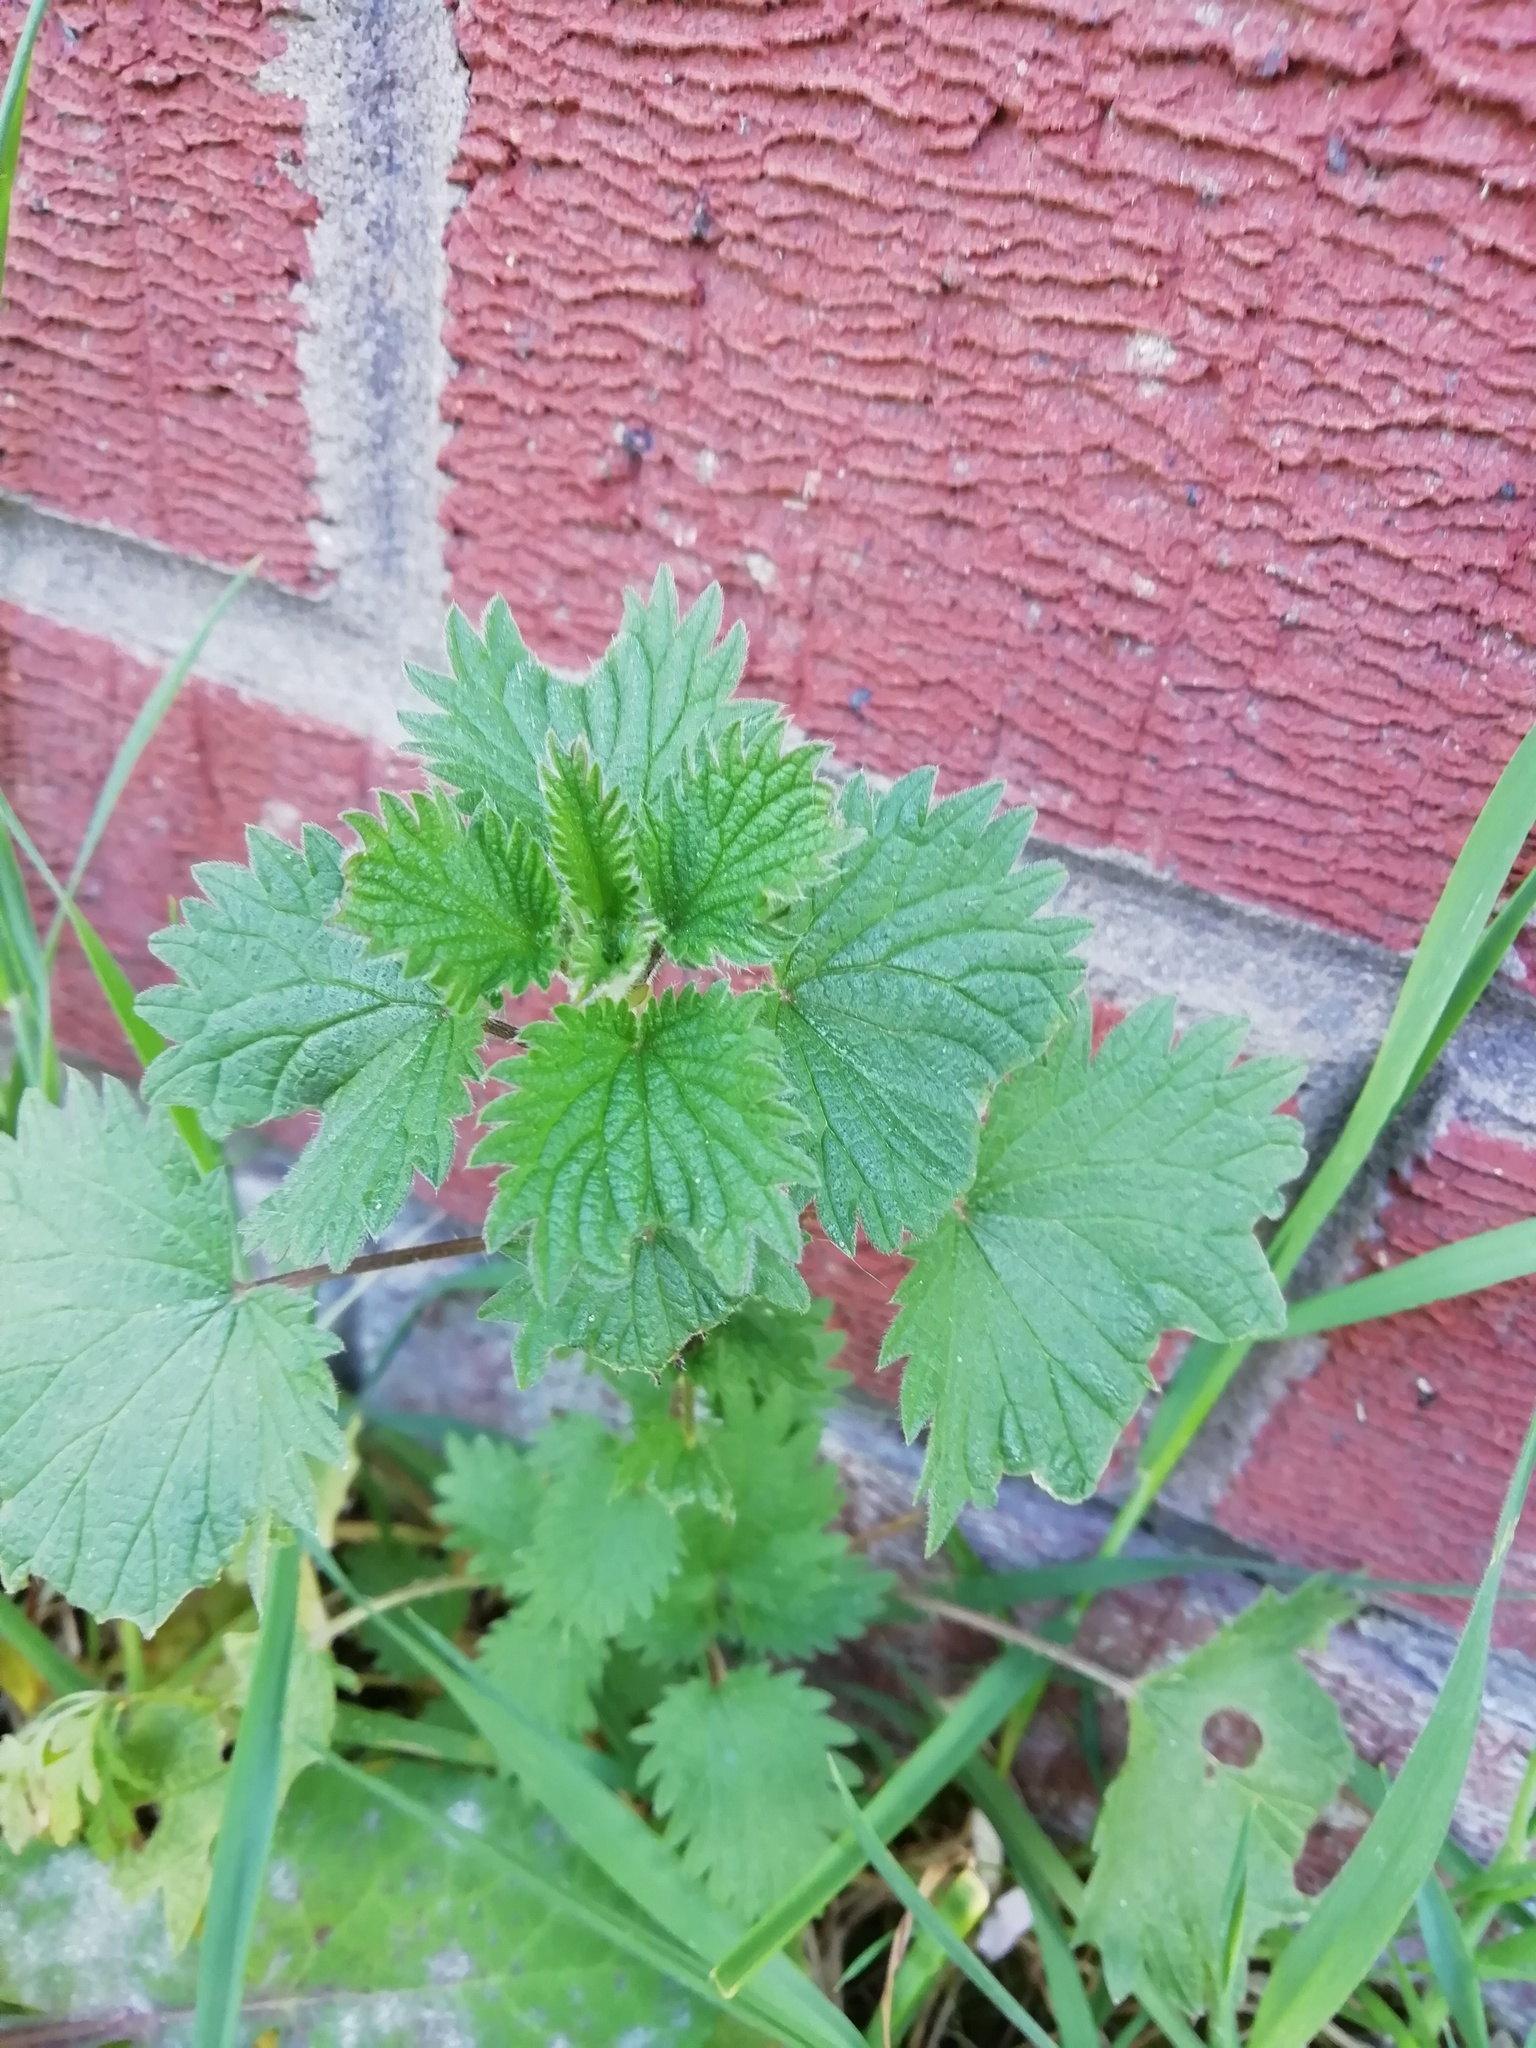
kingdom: Plantae
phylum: Tracheophyta
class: Magnoliopsida
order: Rosales
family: Urticaceae
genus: Urtica
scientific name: Urtica dioica
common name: Common nettle
